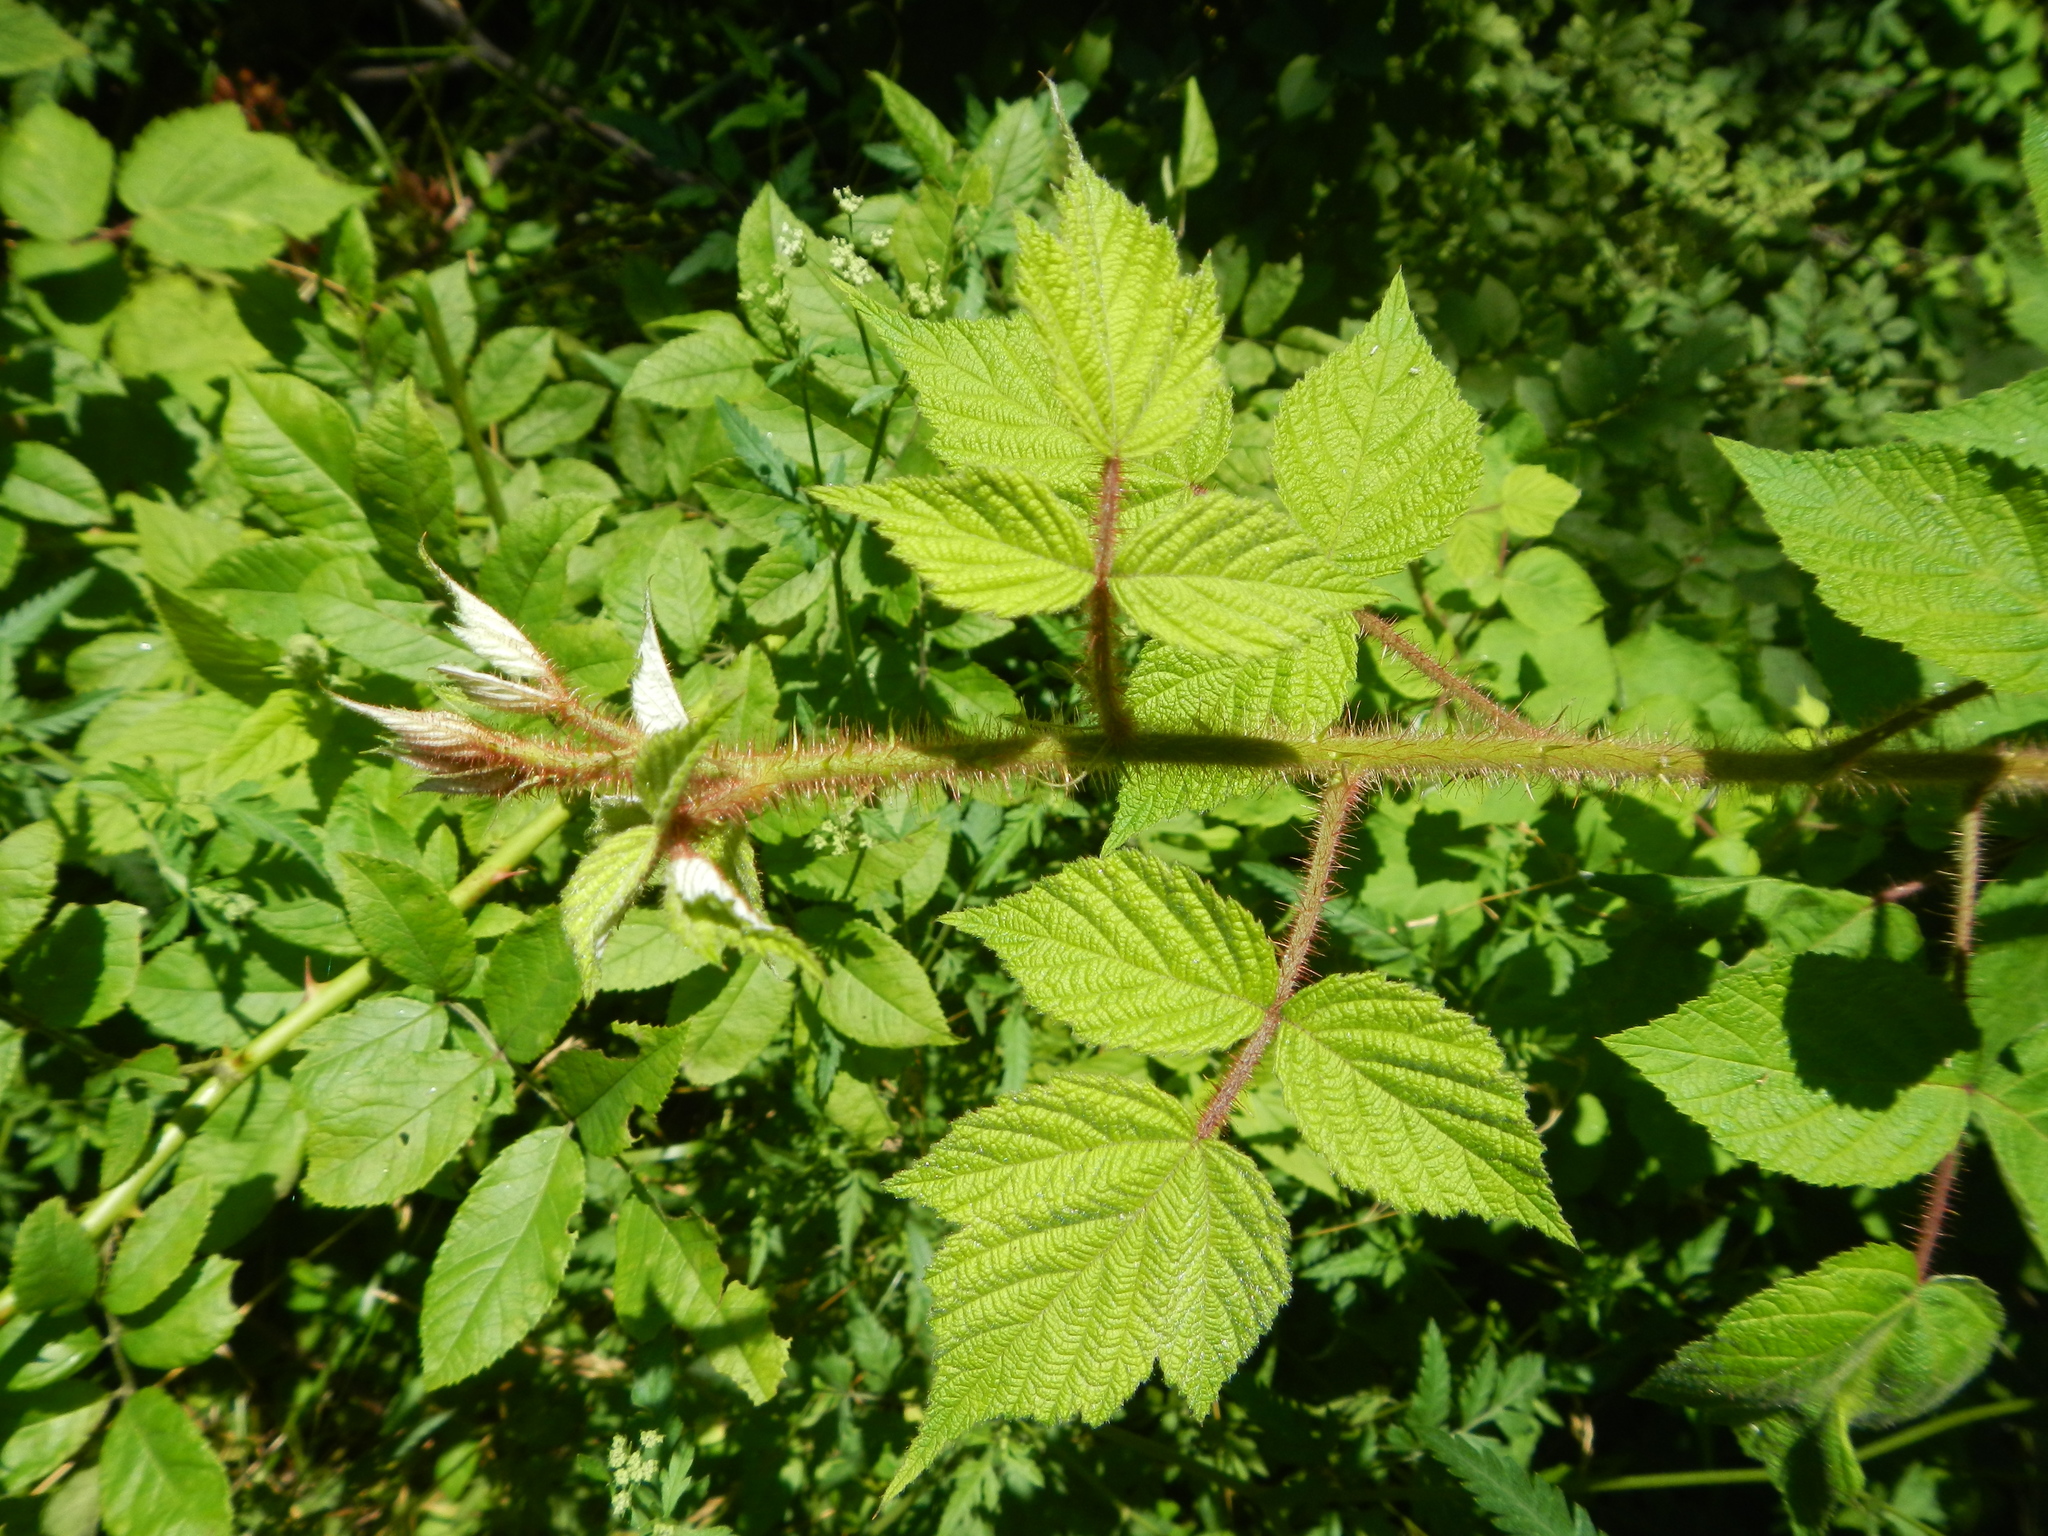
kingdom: Plantae
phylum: Tracheophyta
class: Magnoliopsida
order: Rosales
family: Rosaceae
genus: Rubus
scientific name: Rubus phoenicolasius
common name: Japanese wineberry
